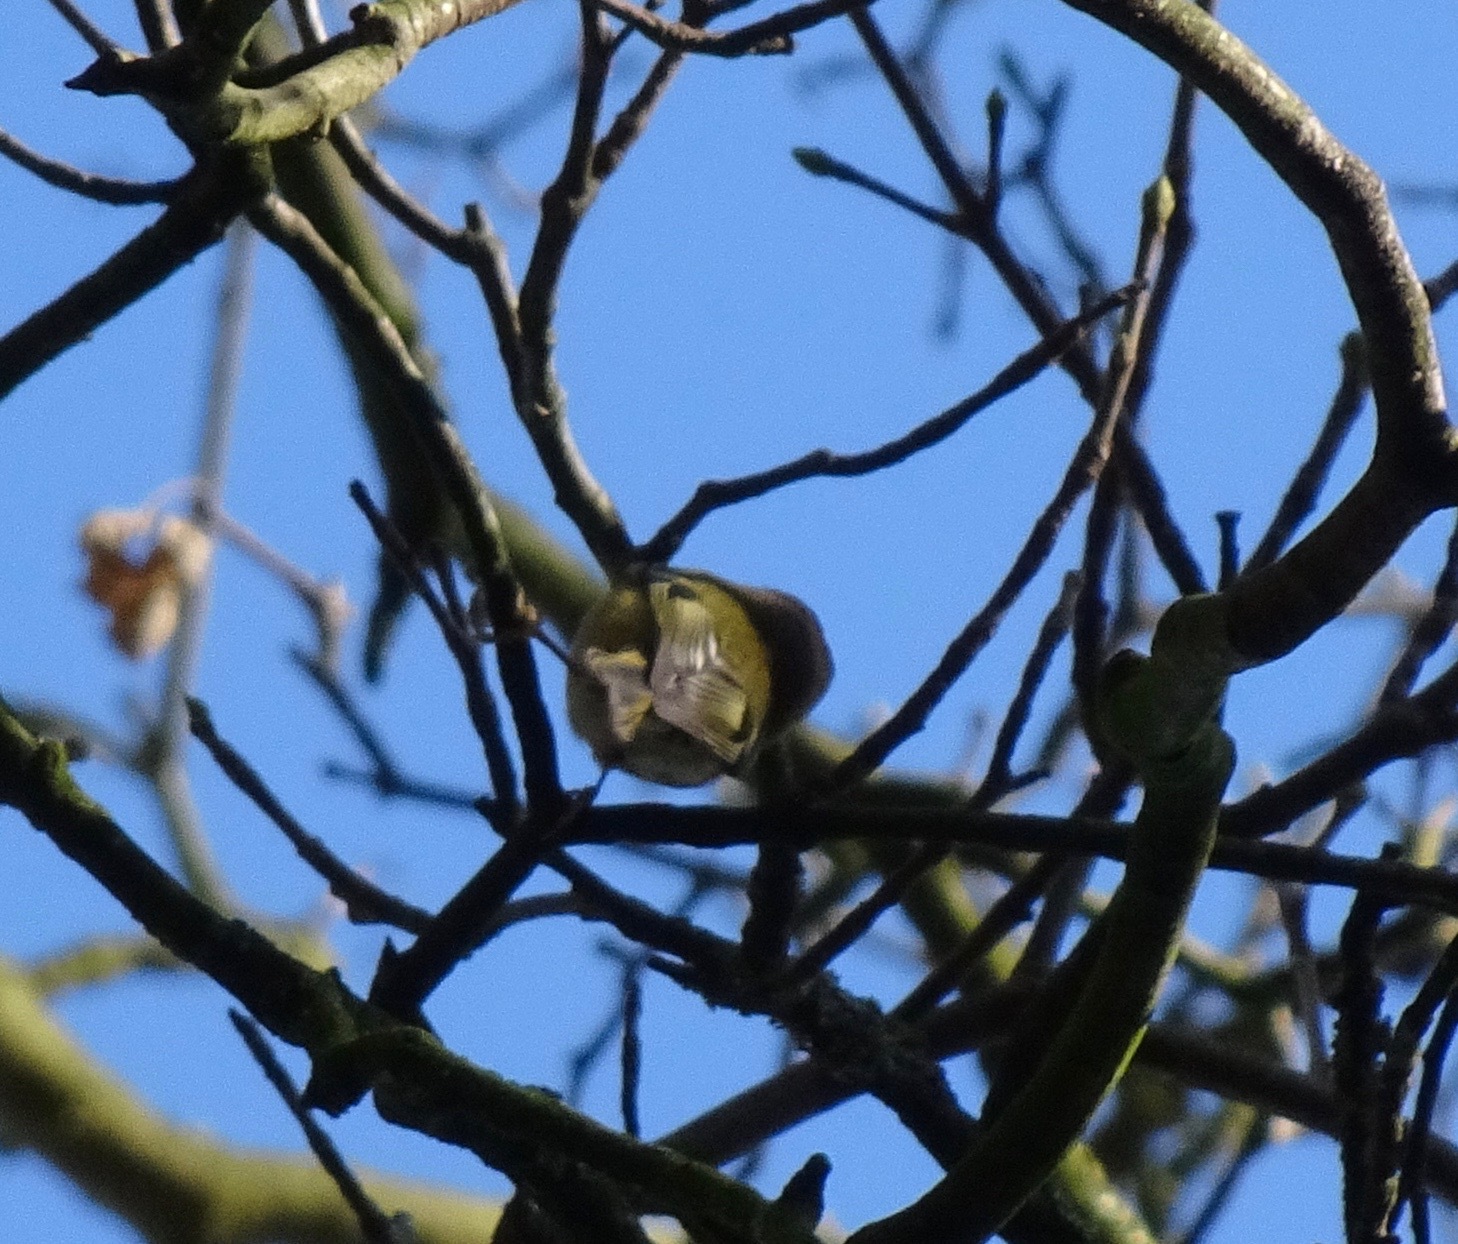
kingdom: Animalia
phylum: Chordata
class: Aves
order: Passeriformes
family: Regulidae
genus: Regulus
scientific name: Regulus regulus
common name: Goldcrest
